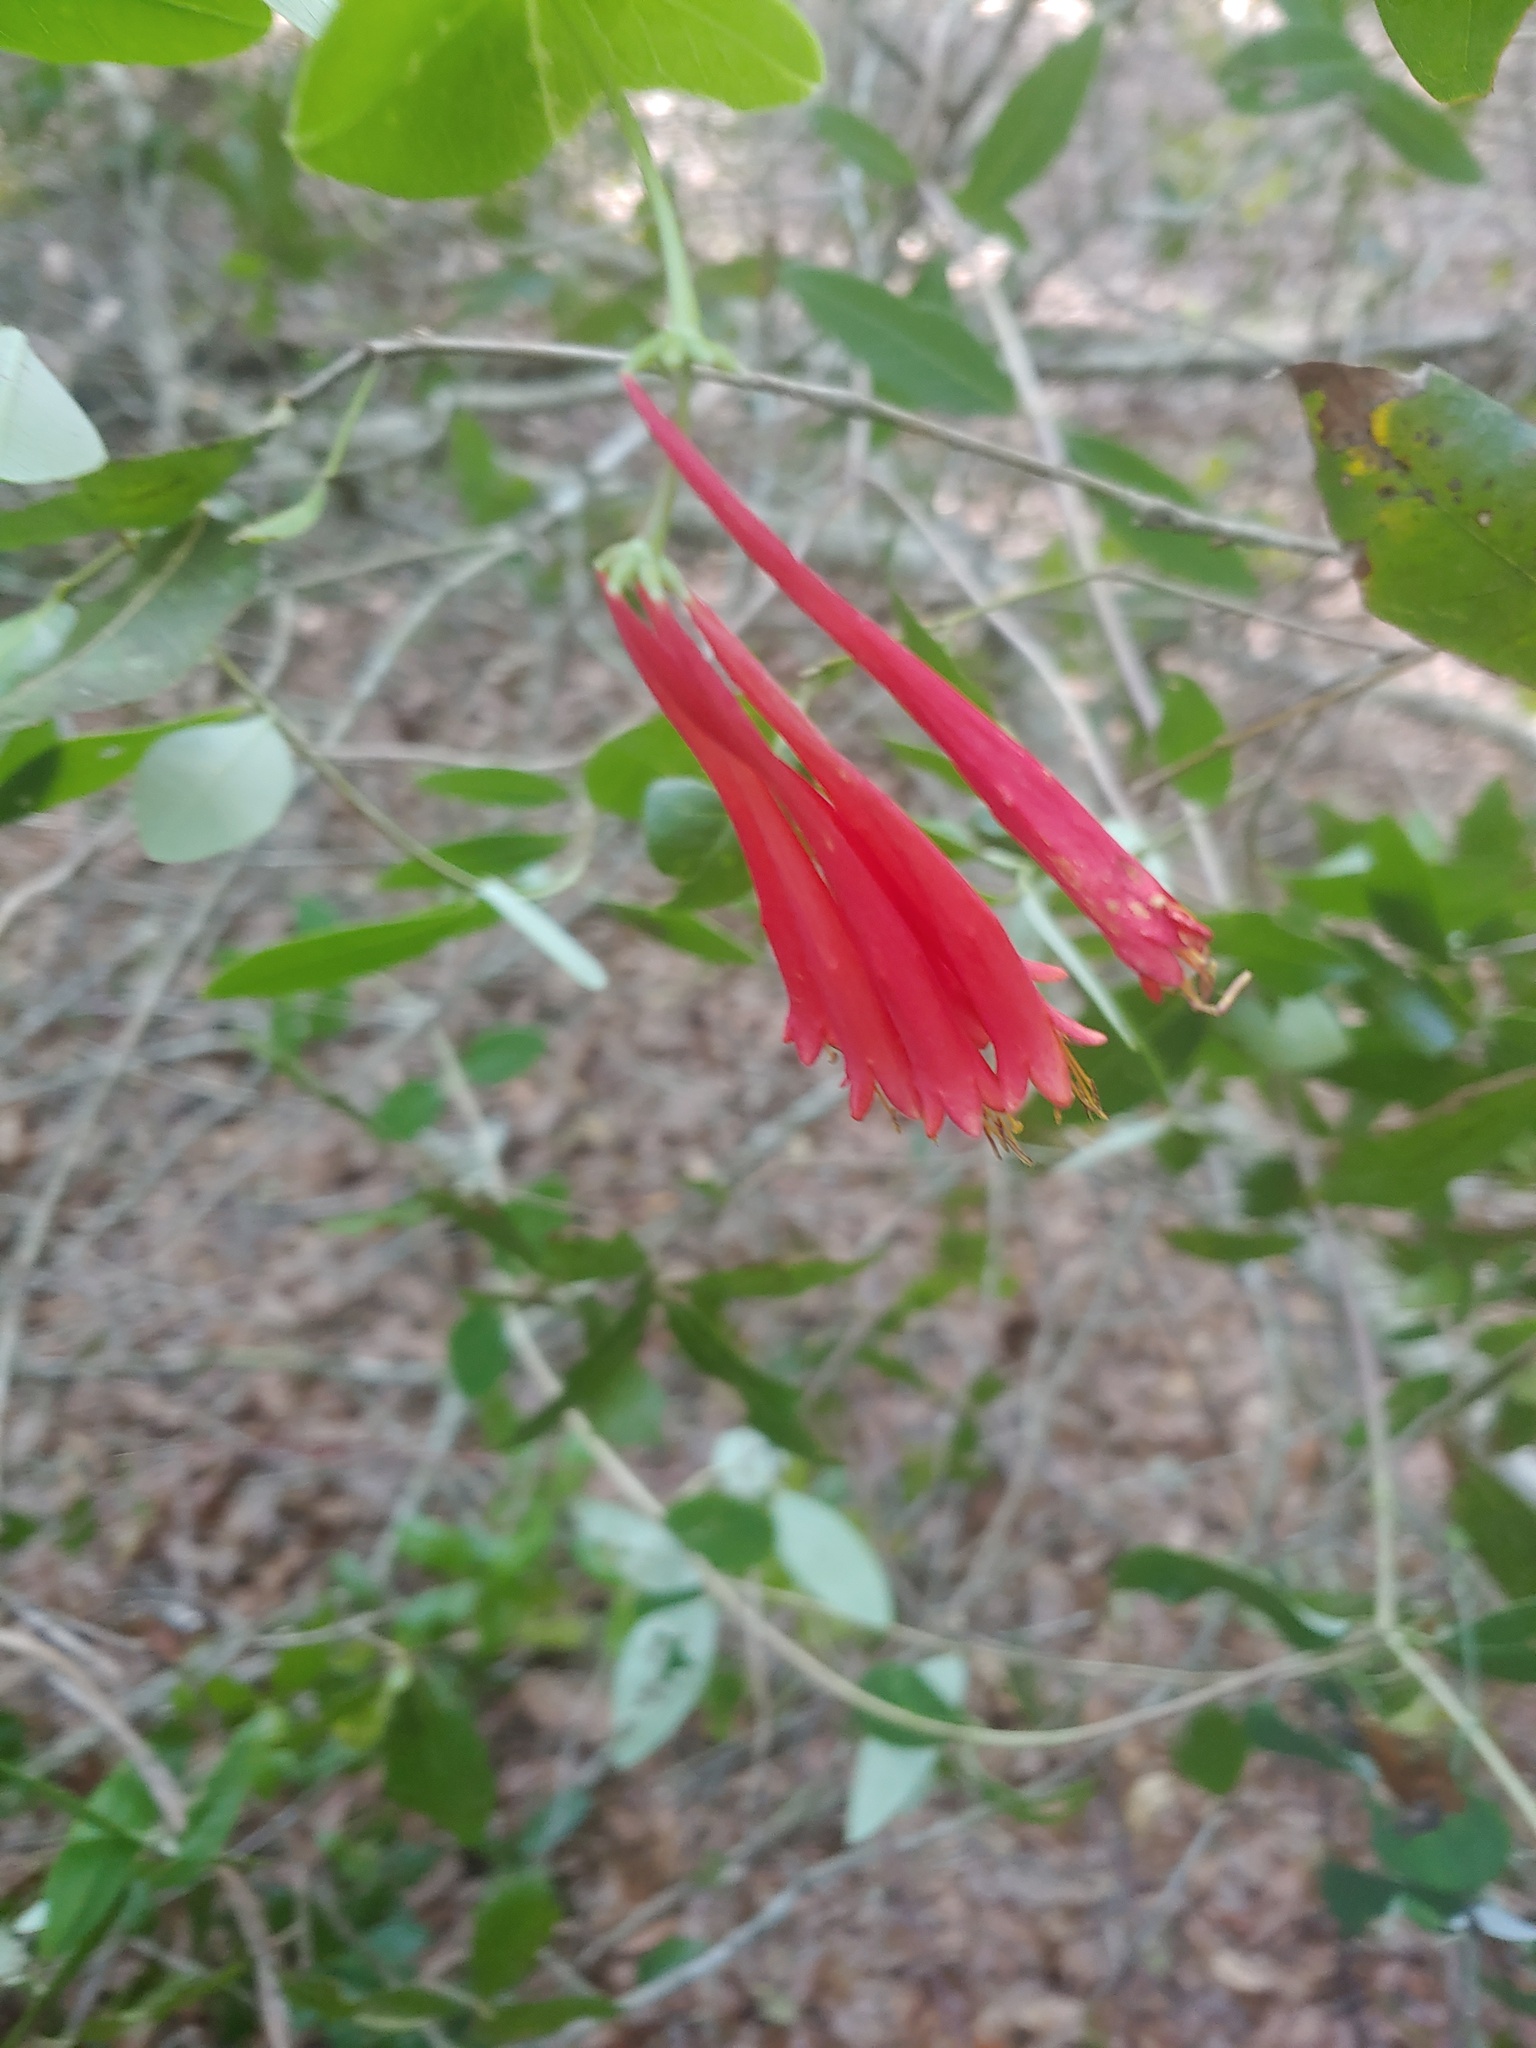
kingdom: Plantae
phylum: Tracheophyta
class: Magnoliopsida
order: Dipsacales
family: Caprifoliaceae
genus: Lonicera
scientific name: Lonicera sempervirens
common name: Coral honeysuckle
